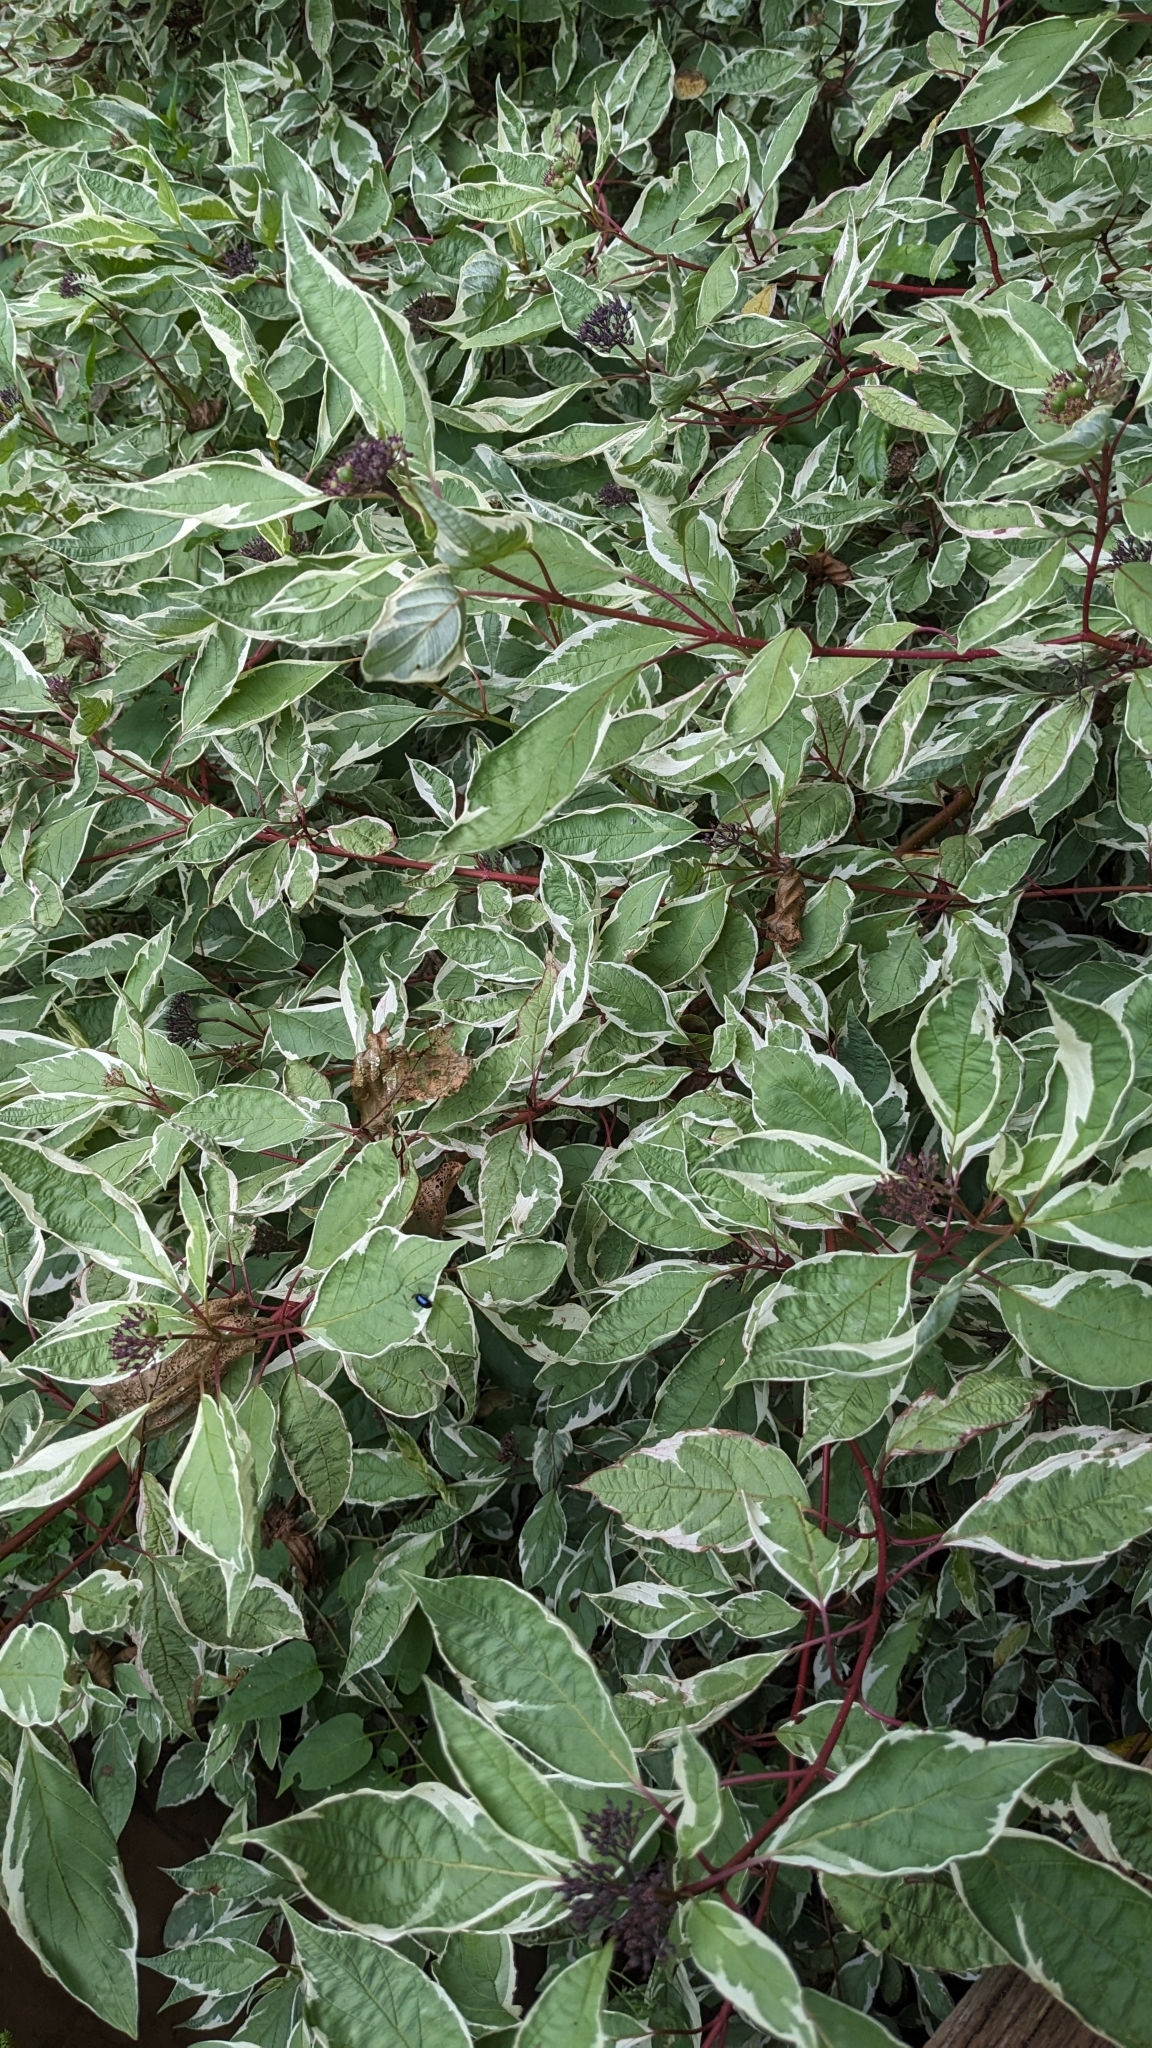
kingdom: Animalia
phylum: Arthropoda
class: Insecta
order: Coleoptera
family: Chrysomelidae
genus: Agelastica
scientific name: Agelastica alni
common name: Alder leaf beetle
